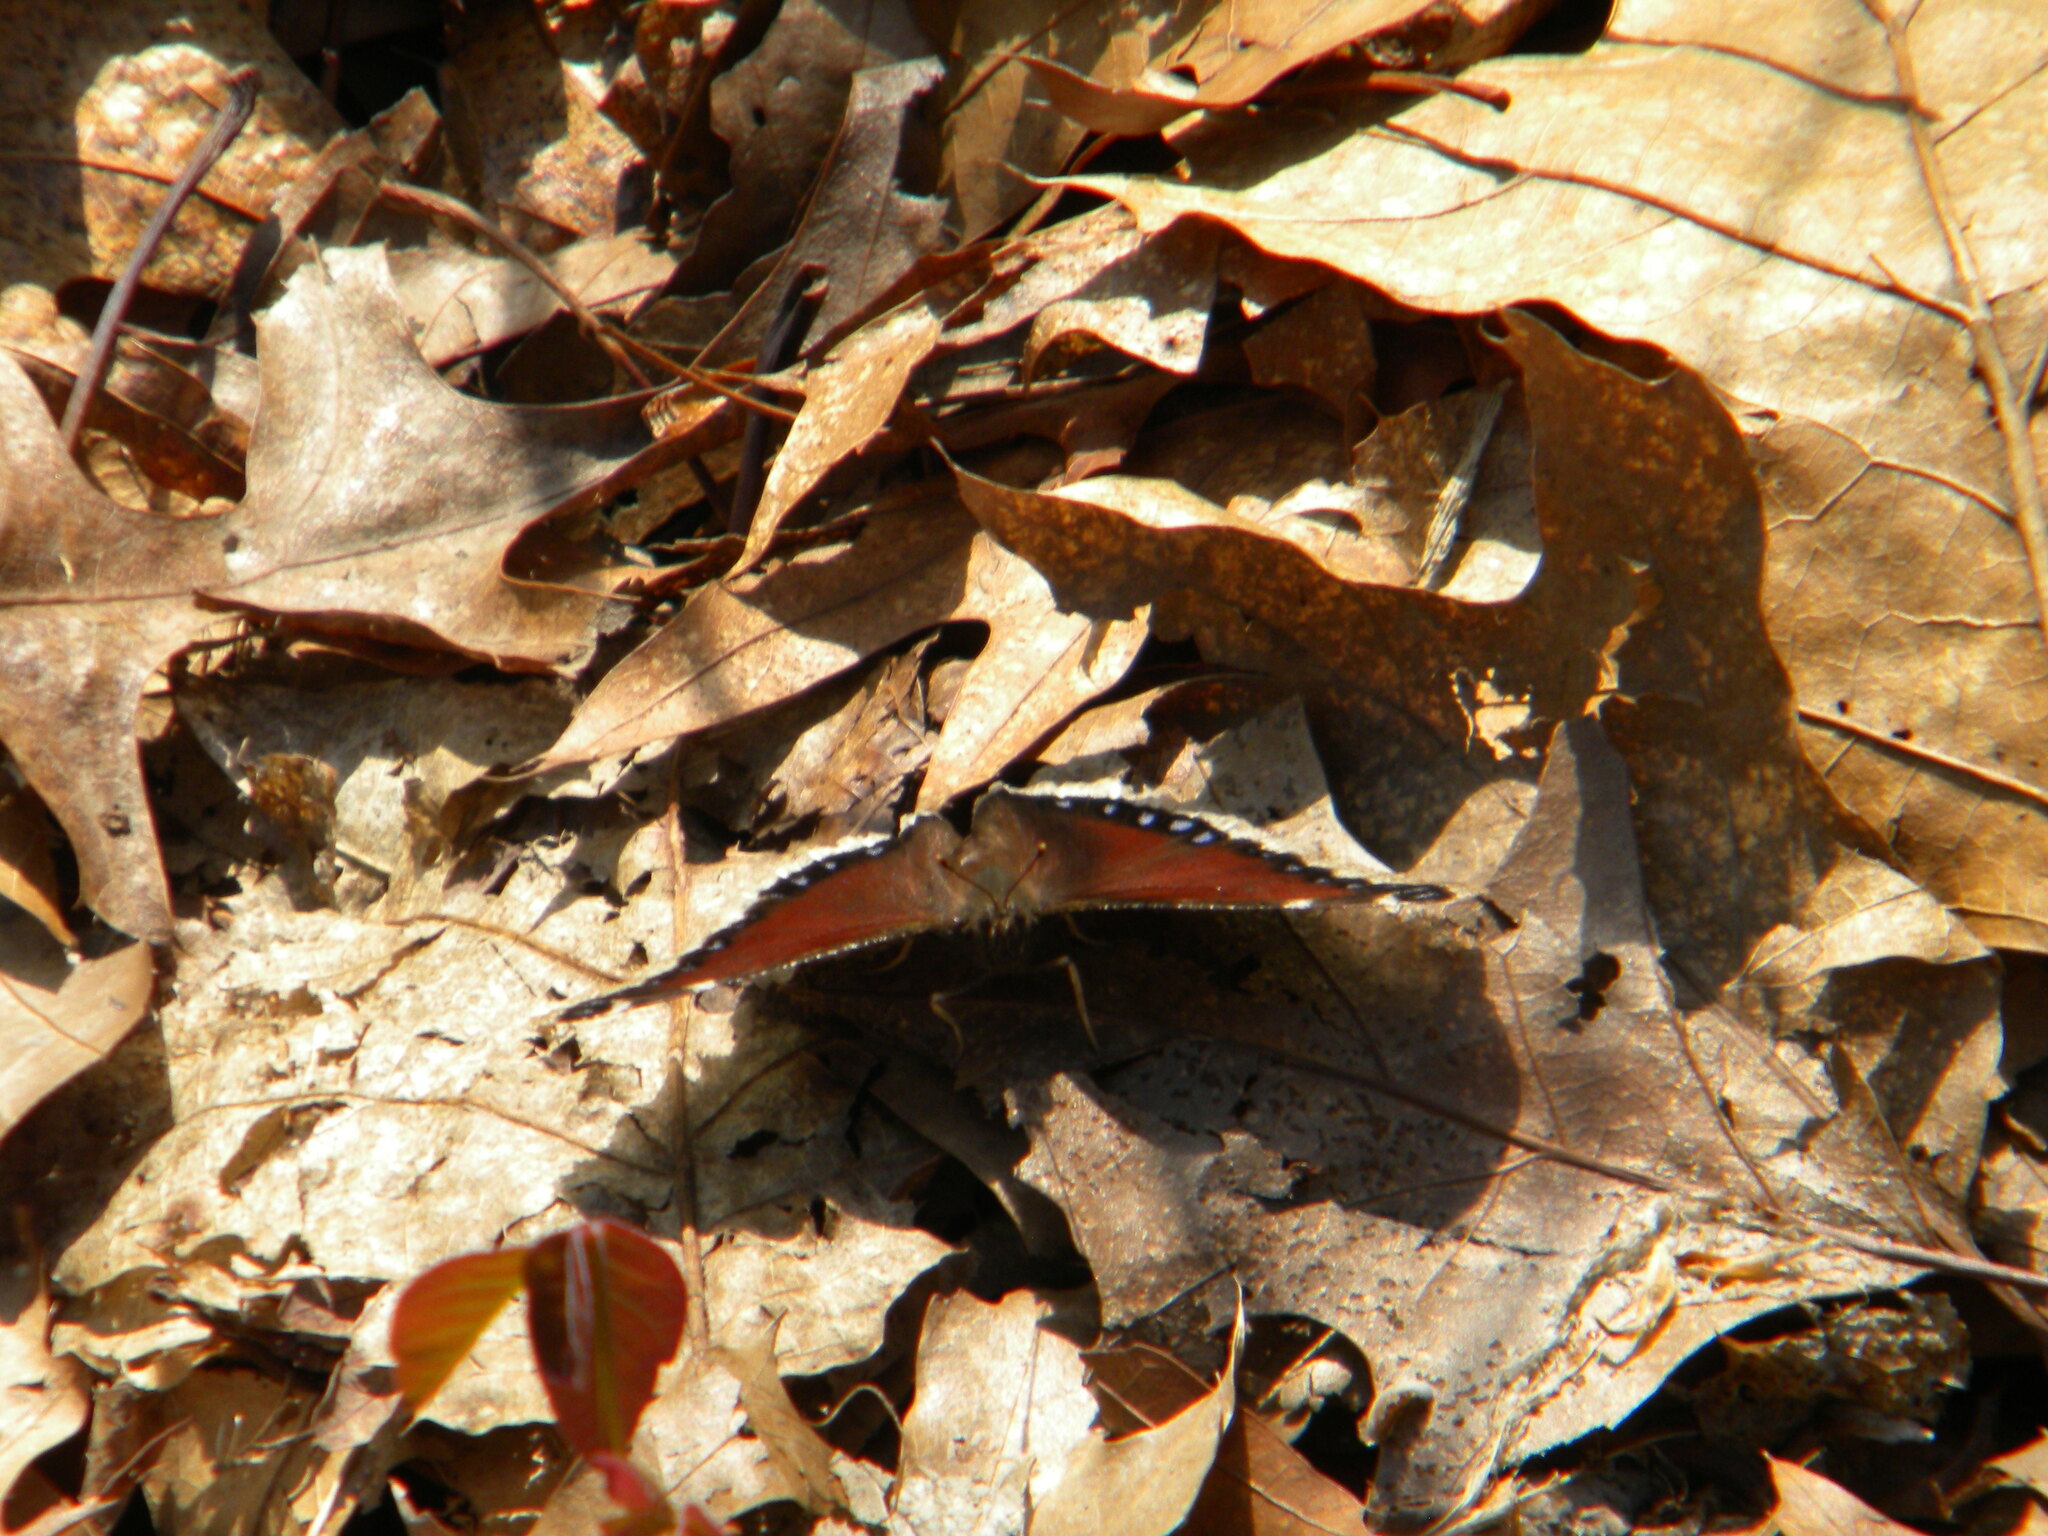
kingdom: Animalia
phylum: Arthropoda
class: Insecta
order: Lepidoptera
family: Nymphalidae
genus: Nymphalis
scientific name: Nymphalis antiopa
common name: Camberwell beauty
